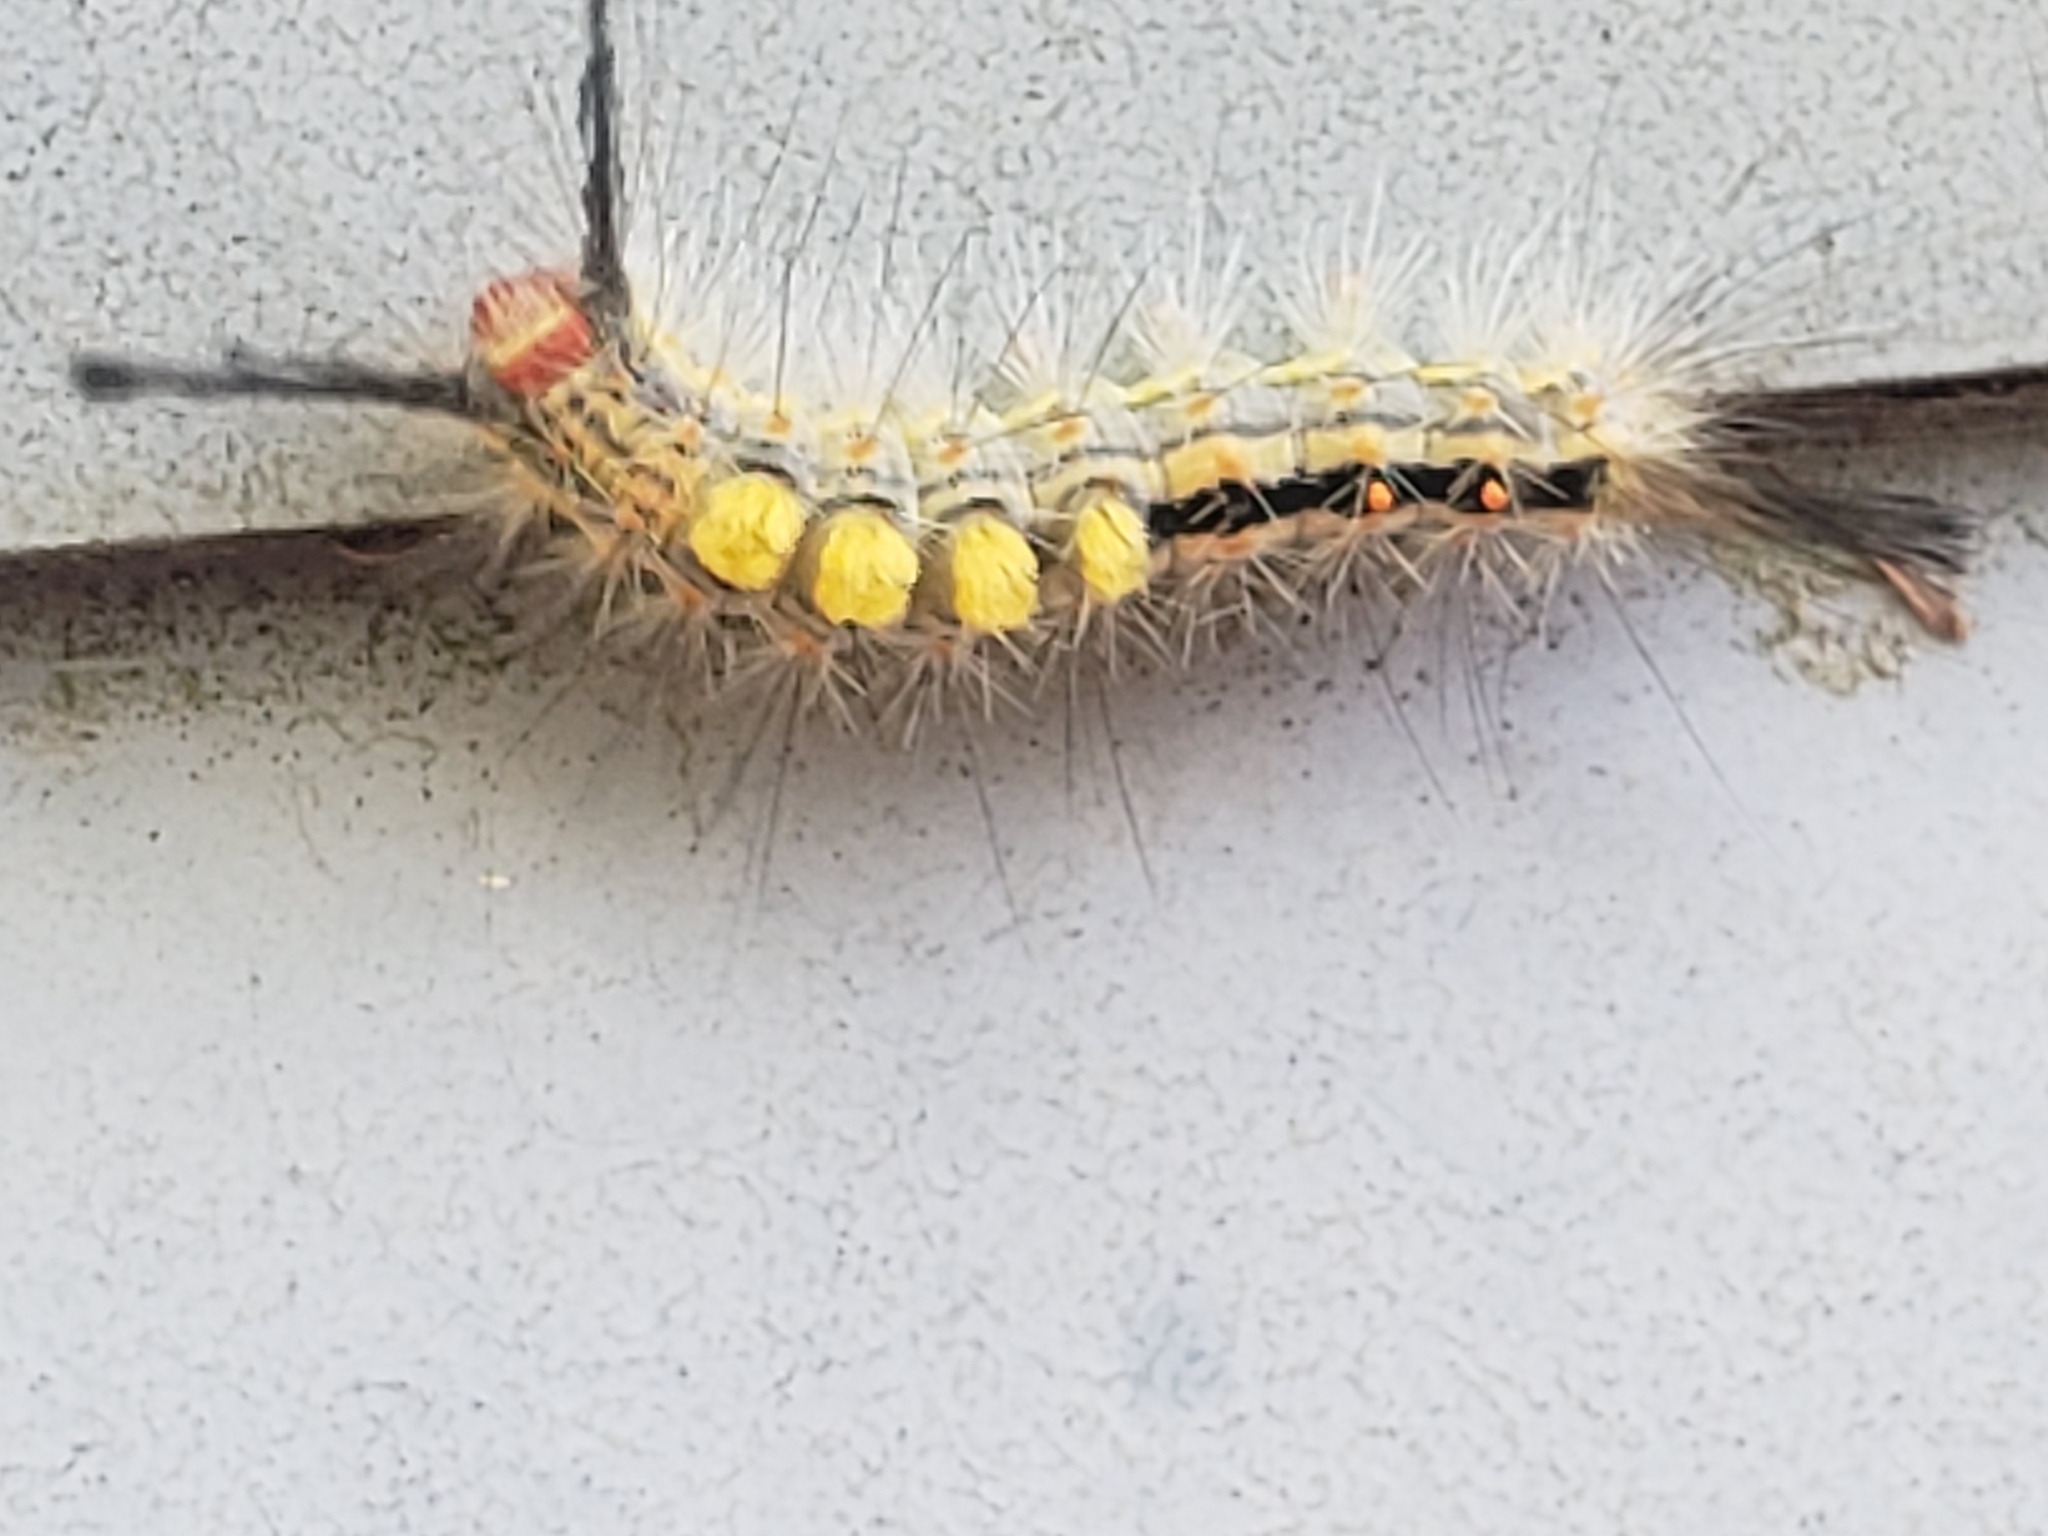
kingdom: Animalia
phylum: Arthropoda
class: Insecta
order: Lepidoptera
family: Erebidae
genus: Orgyia
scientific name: Orgyia detrita
